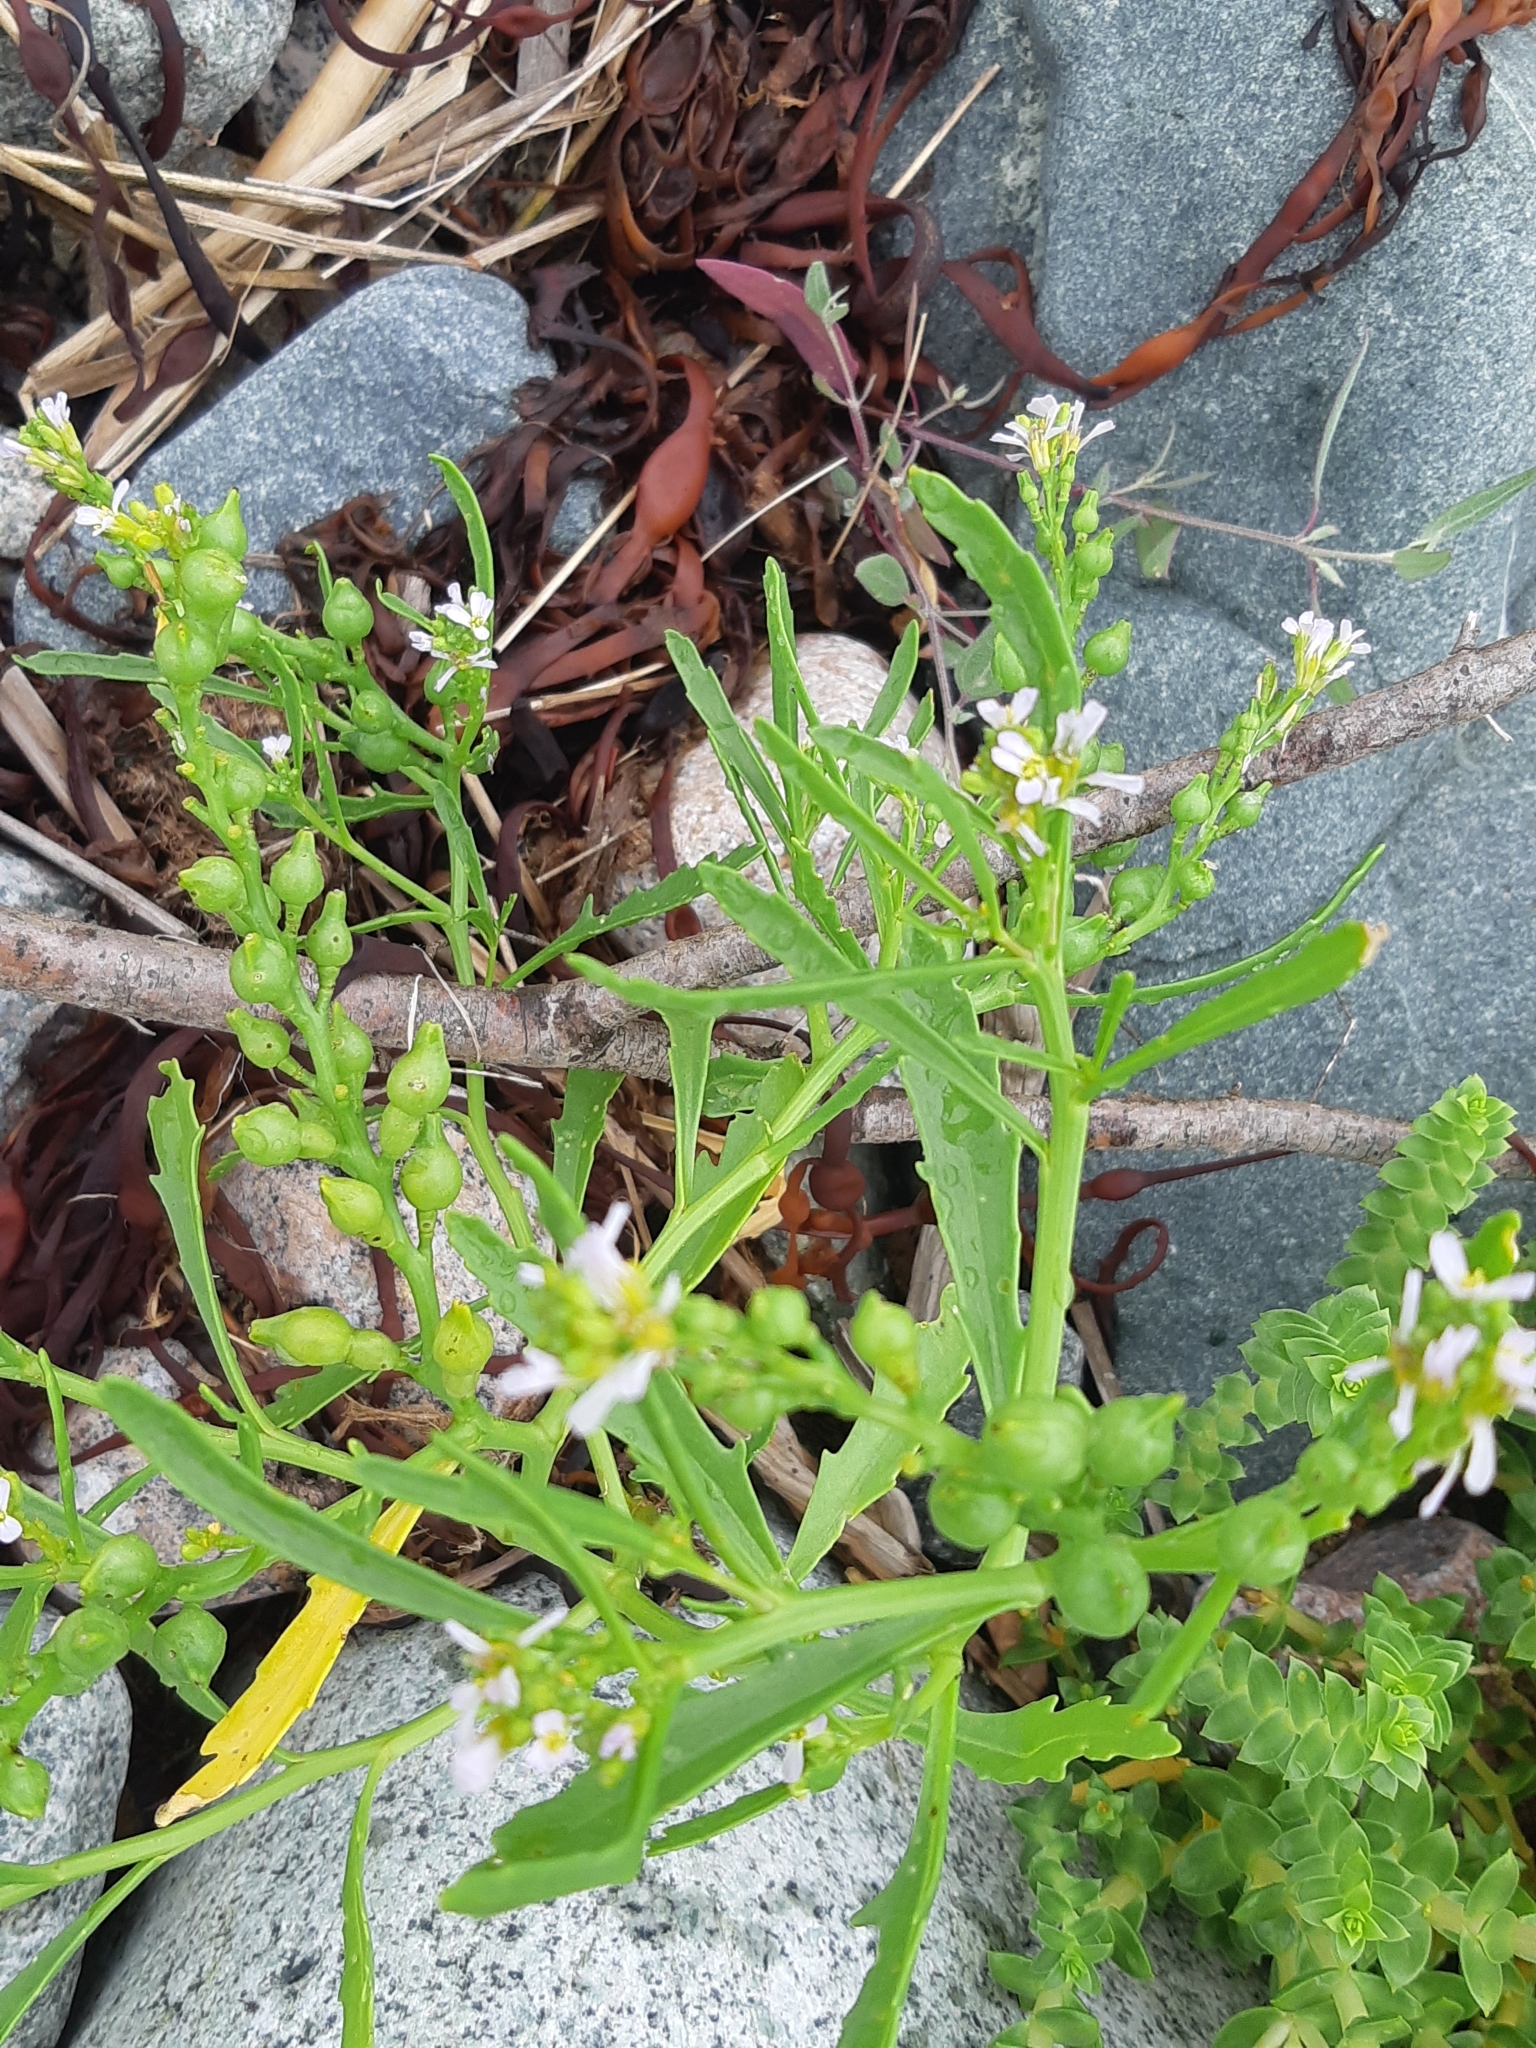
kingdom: Plantae
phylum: Tracheophyta
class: Magnoliopsida
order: Brassicales
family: Brassicaceae
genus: Cakile
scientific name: Cakile edentula
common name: American sea rocket
